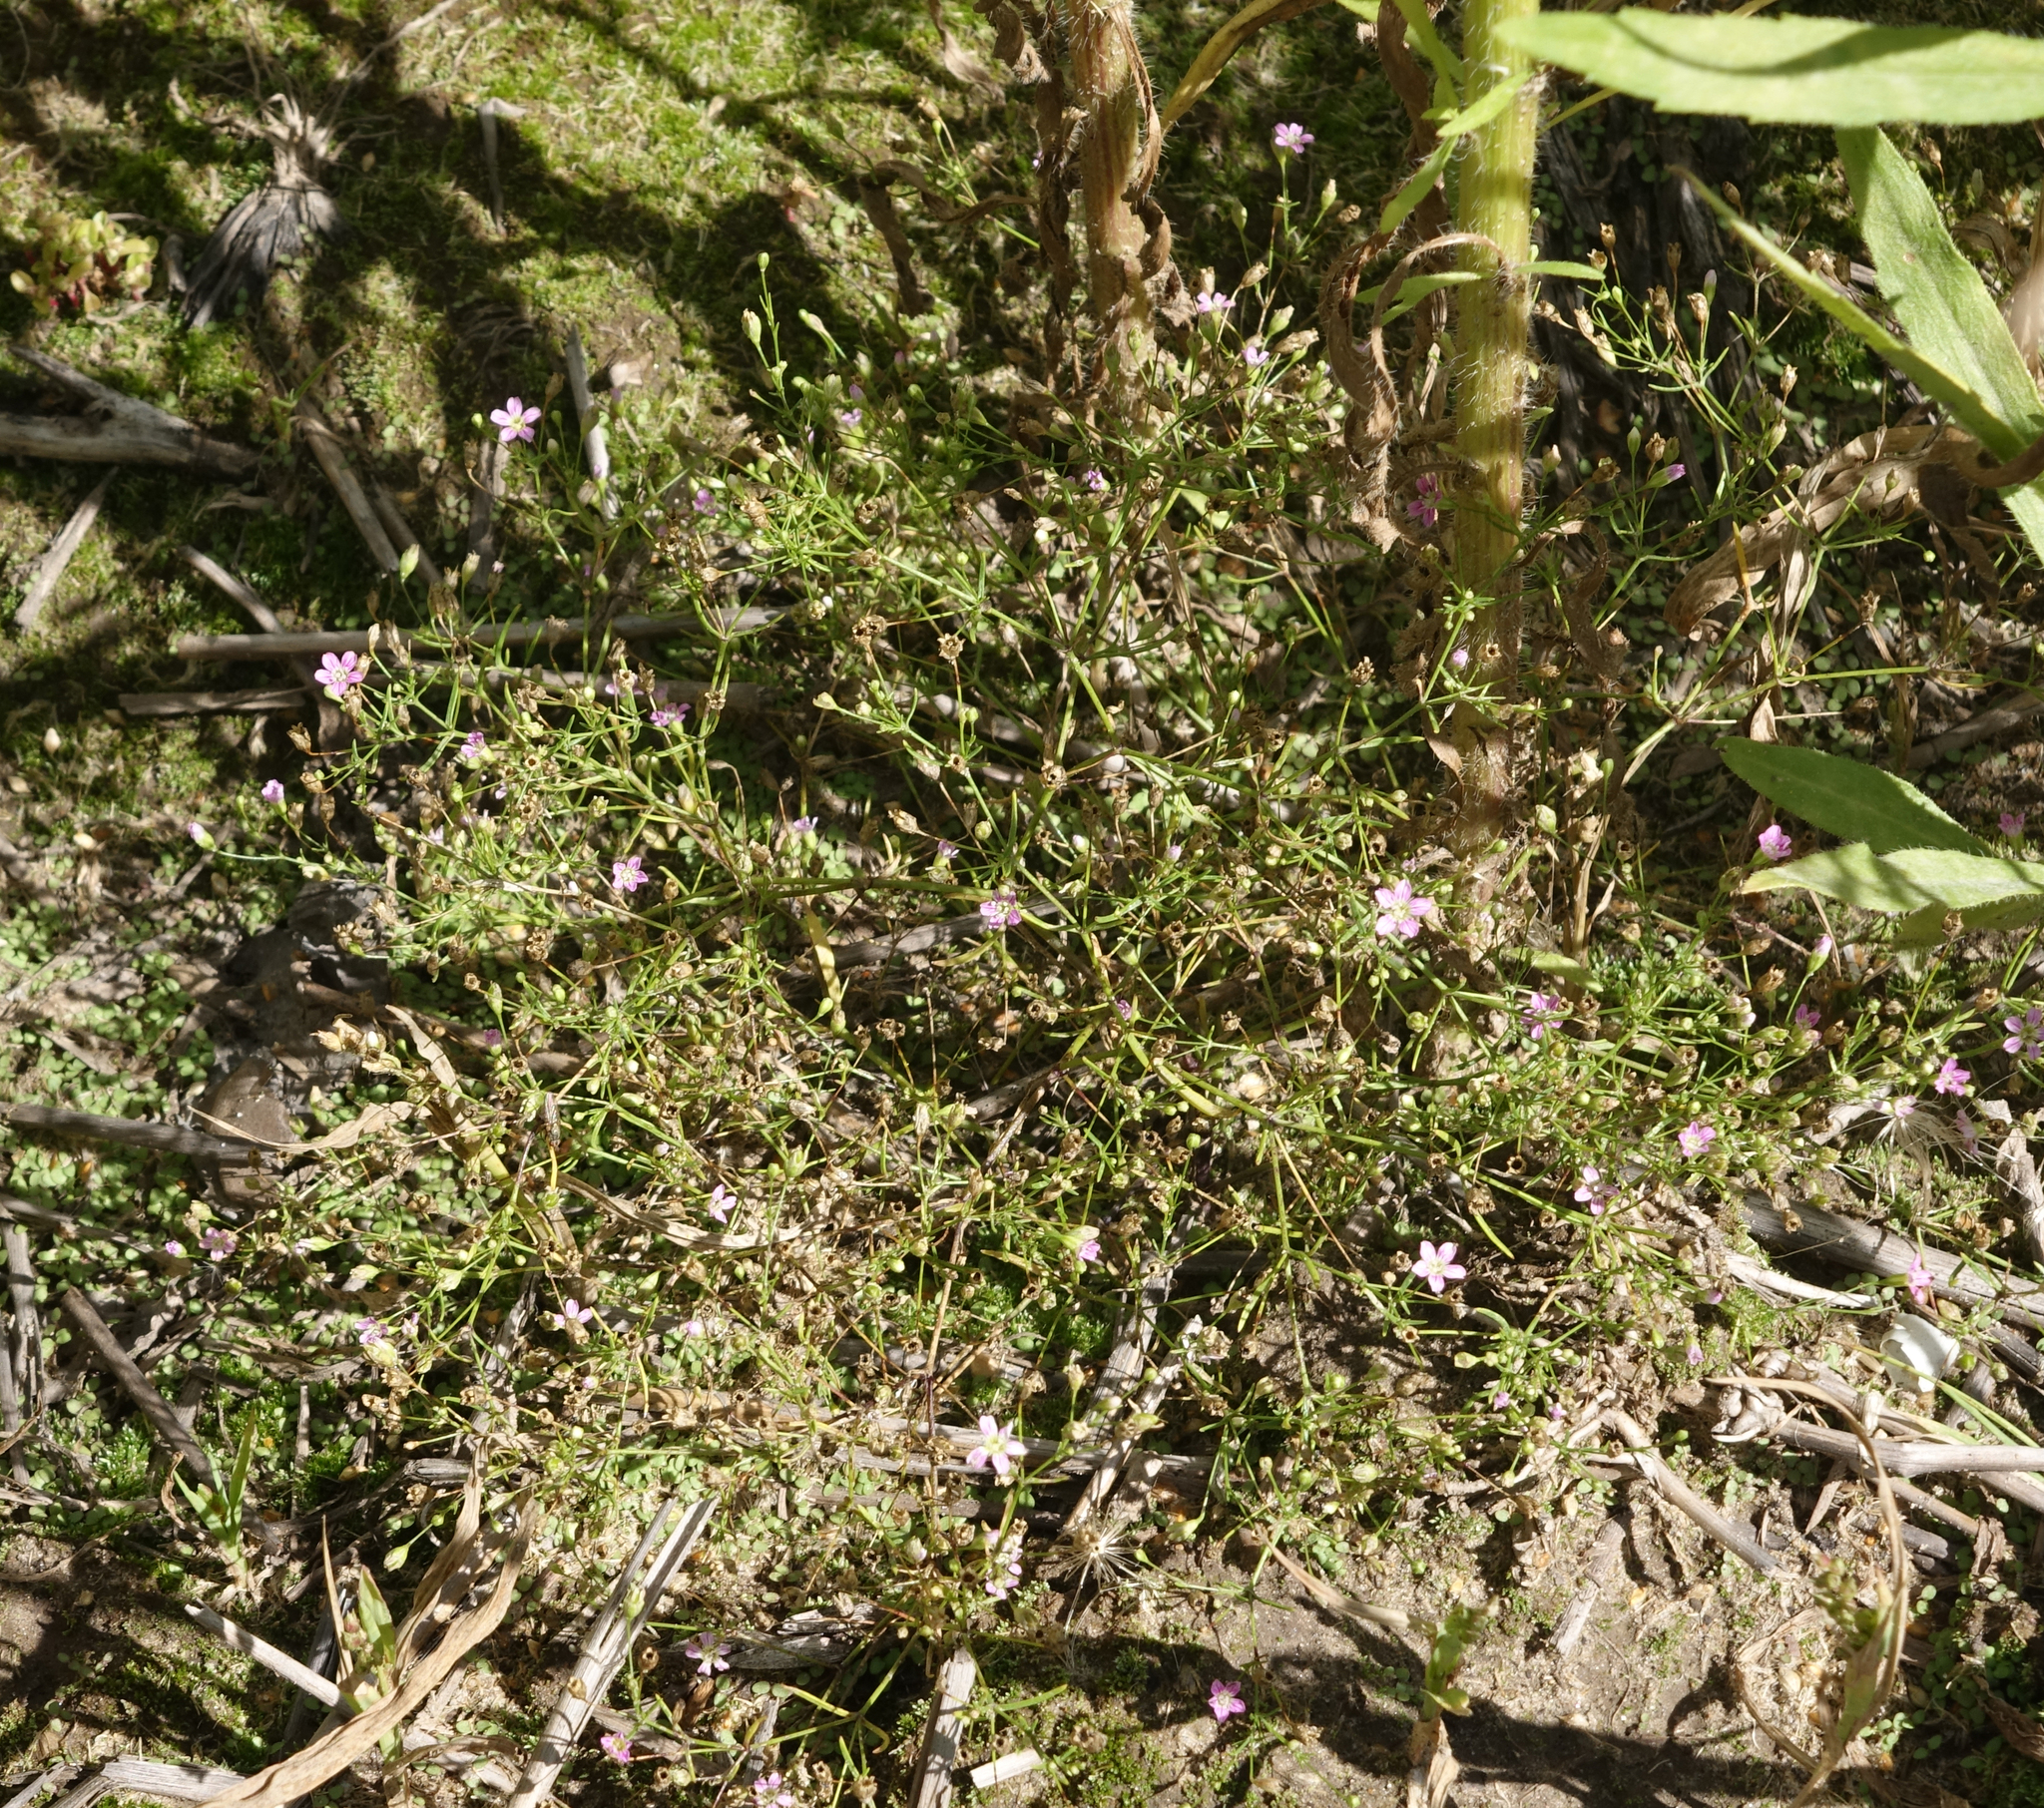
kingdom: Plantae
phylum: Tracheophyta
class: Magnoliopsida
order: Caryophyllales
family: Caryophyllaceae
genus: Psammophiliella
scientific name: Psammophiliella muralis
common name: Cushion baby's-breath
